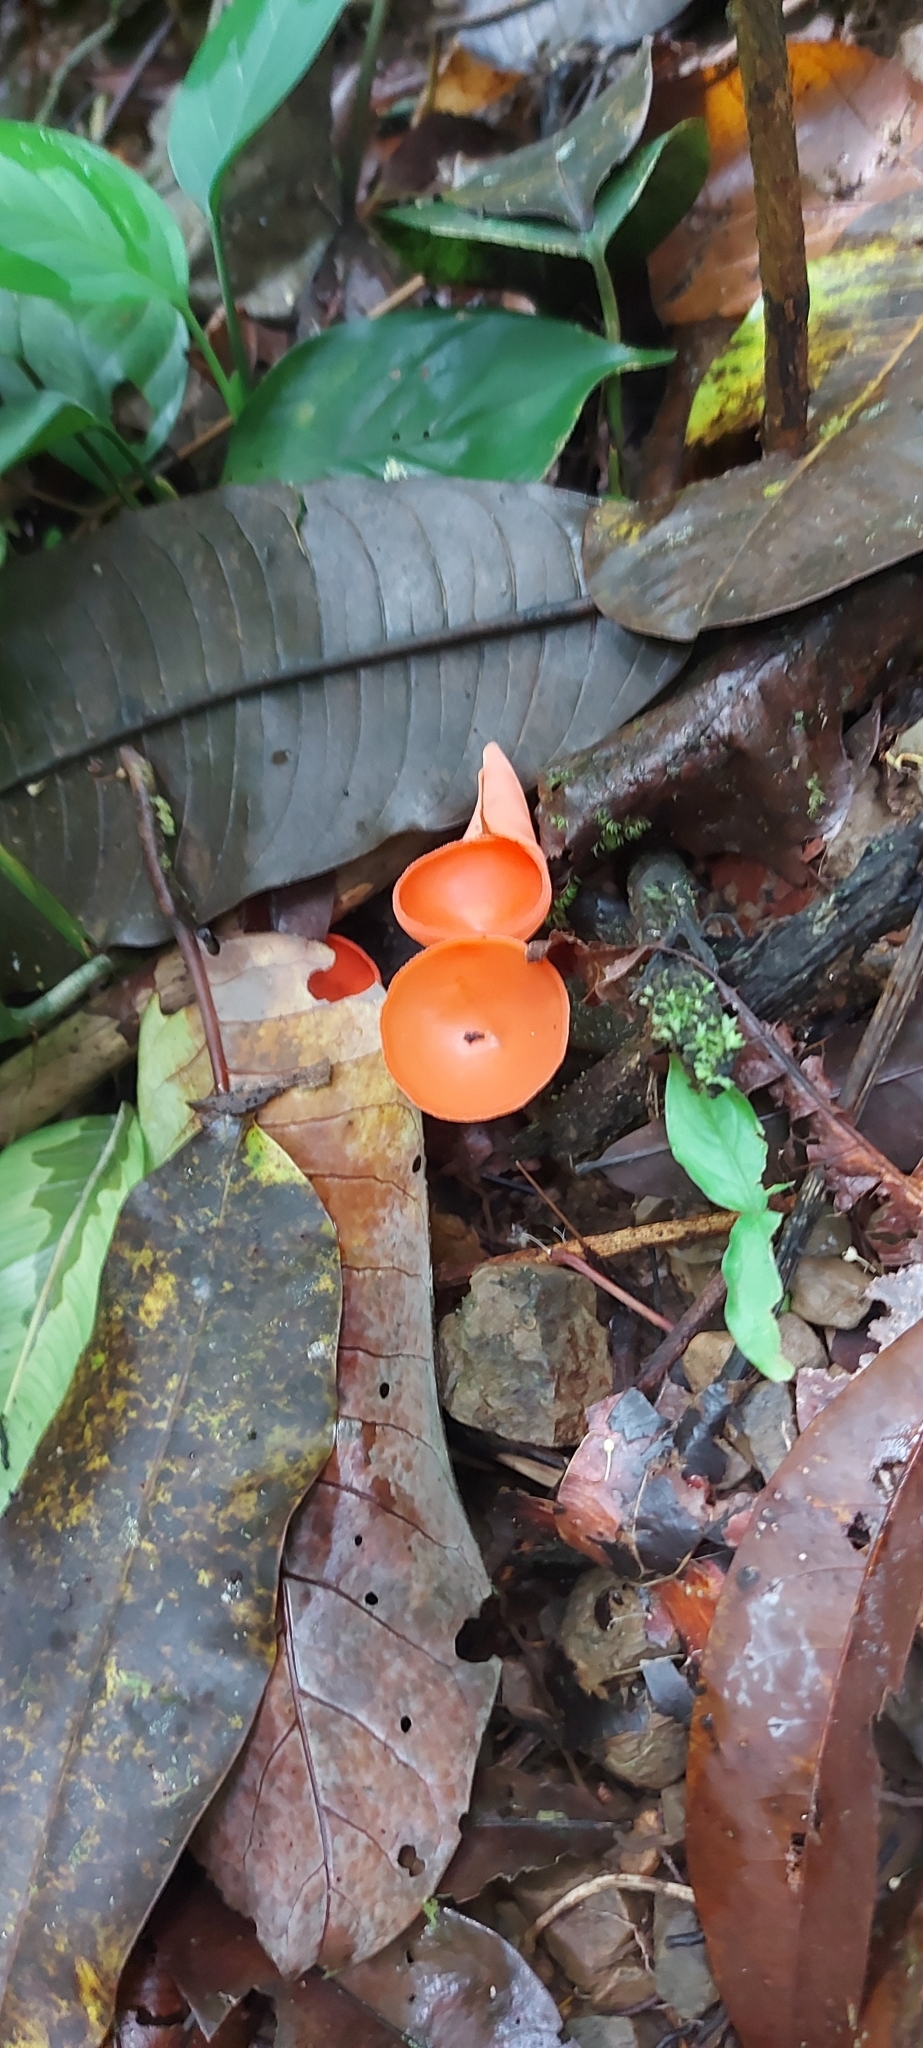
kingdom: Fungi
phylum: Ascomycota
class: Pezizomycetes
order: Pezizales
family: Sarcoscyphaceae
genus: Cookeina
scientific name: Cookeina speciosa
